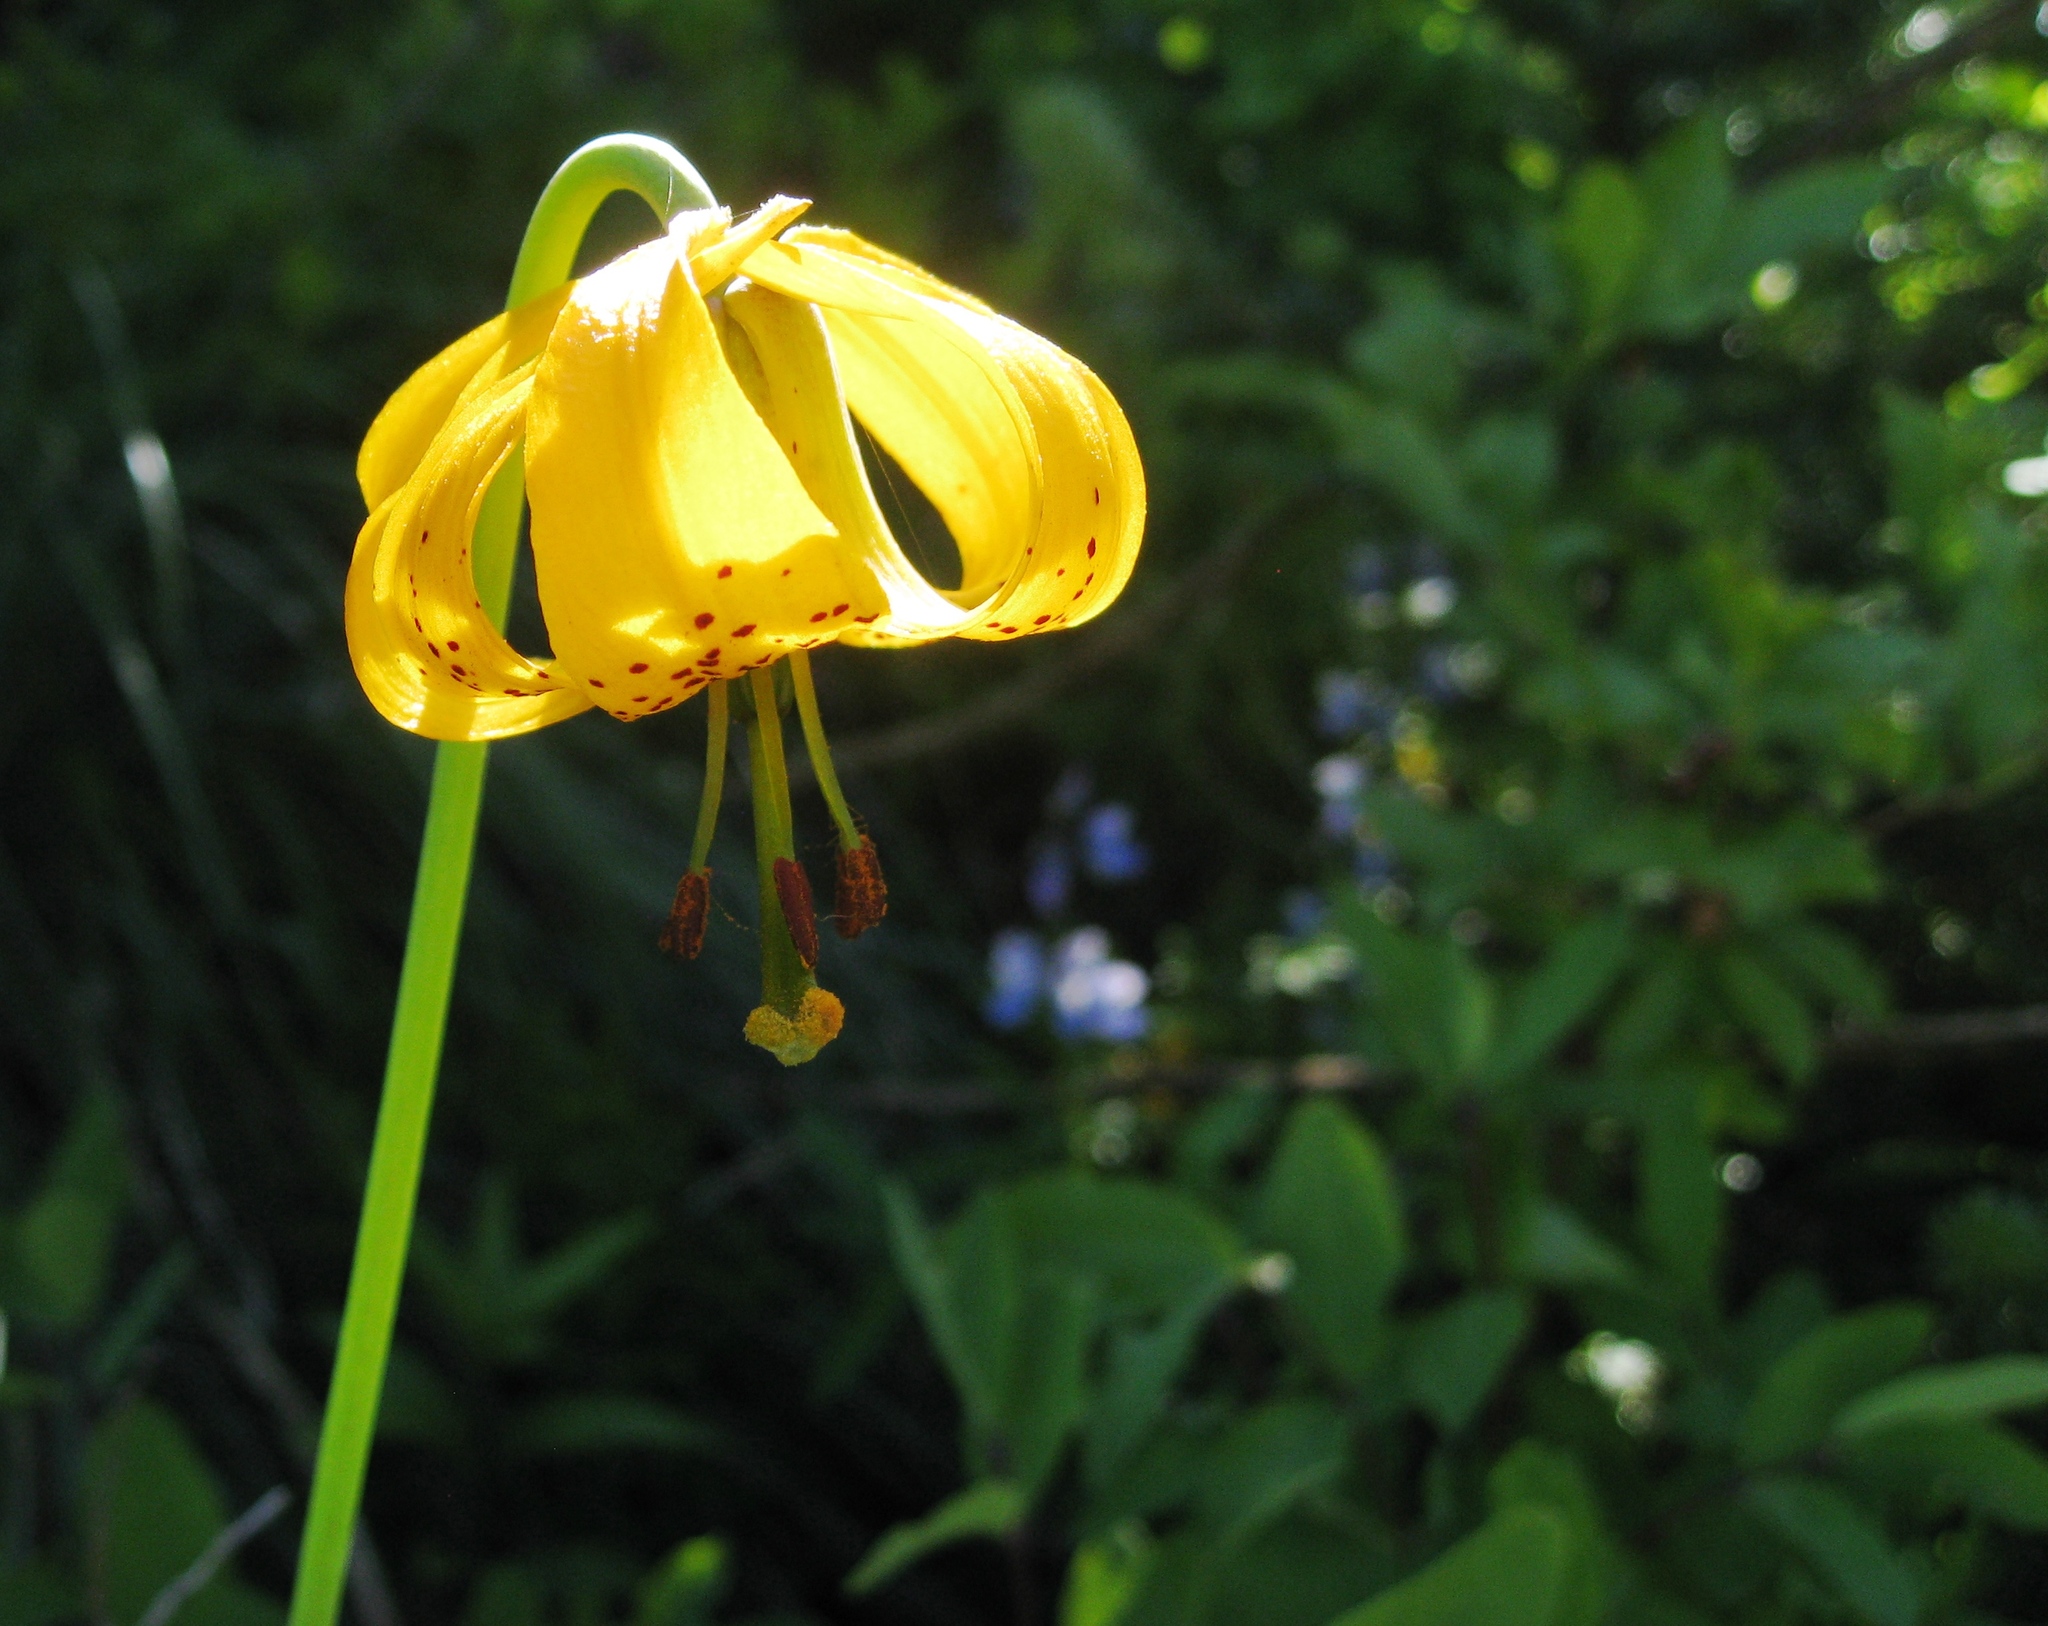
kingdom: Plantae
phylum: Tracheophyta
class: Liliopsida
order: Liliales
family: Liliaceae
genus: Lilium
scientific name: Lilium columbianum
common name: Columbia lily
